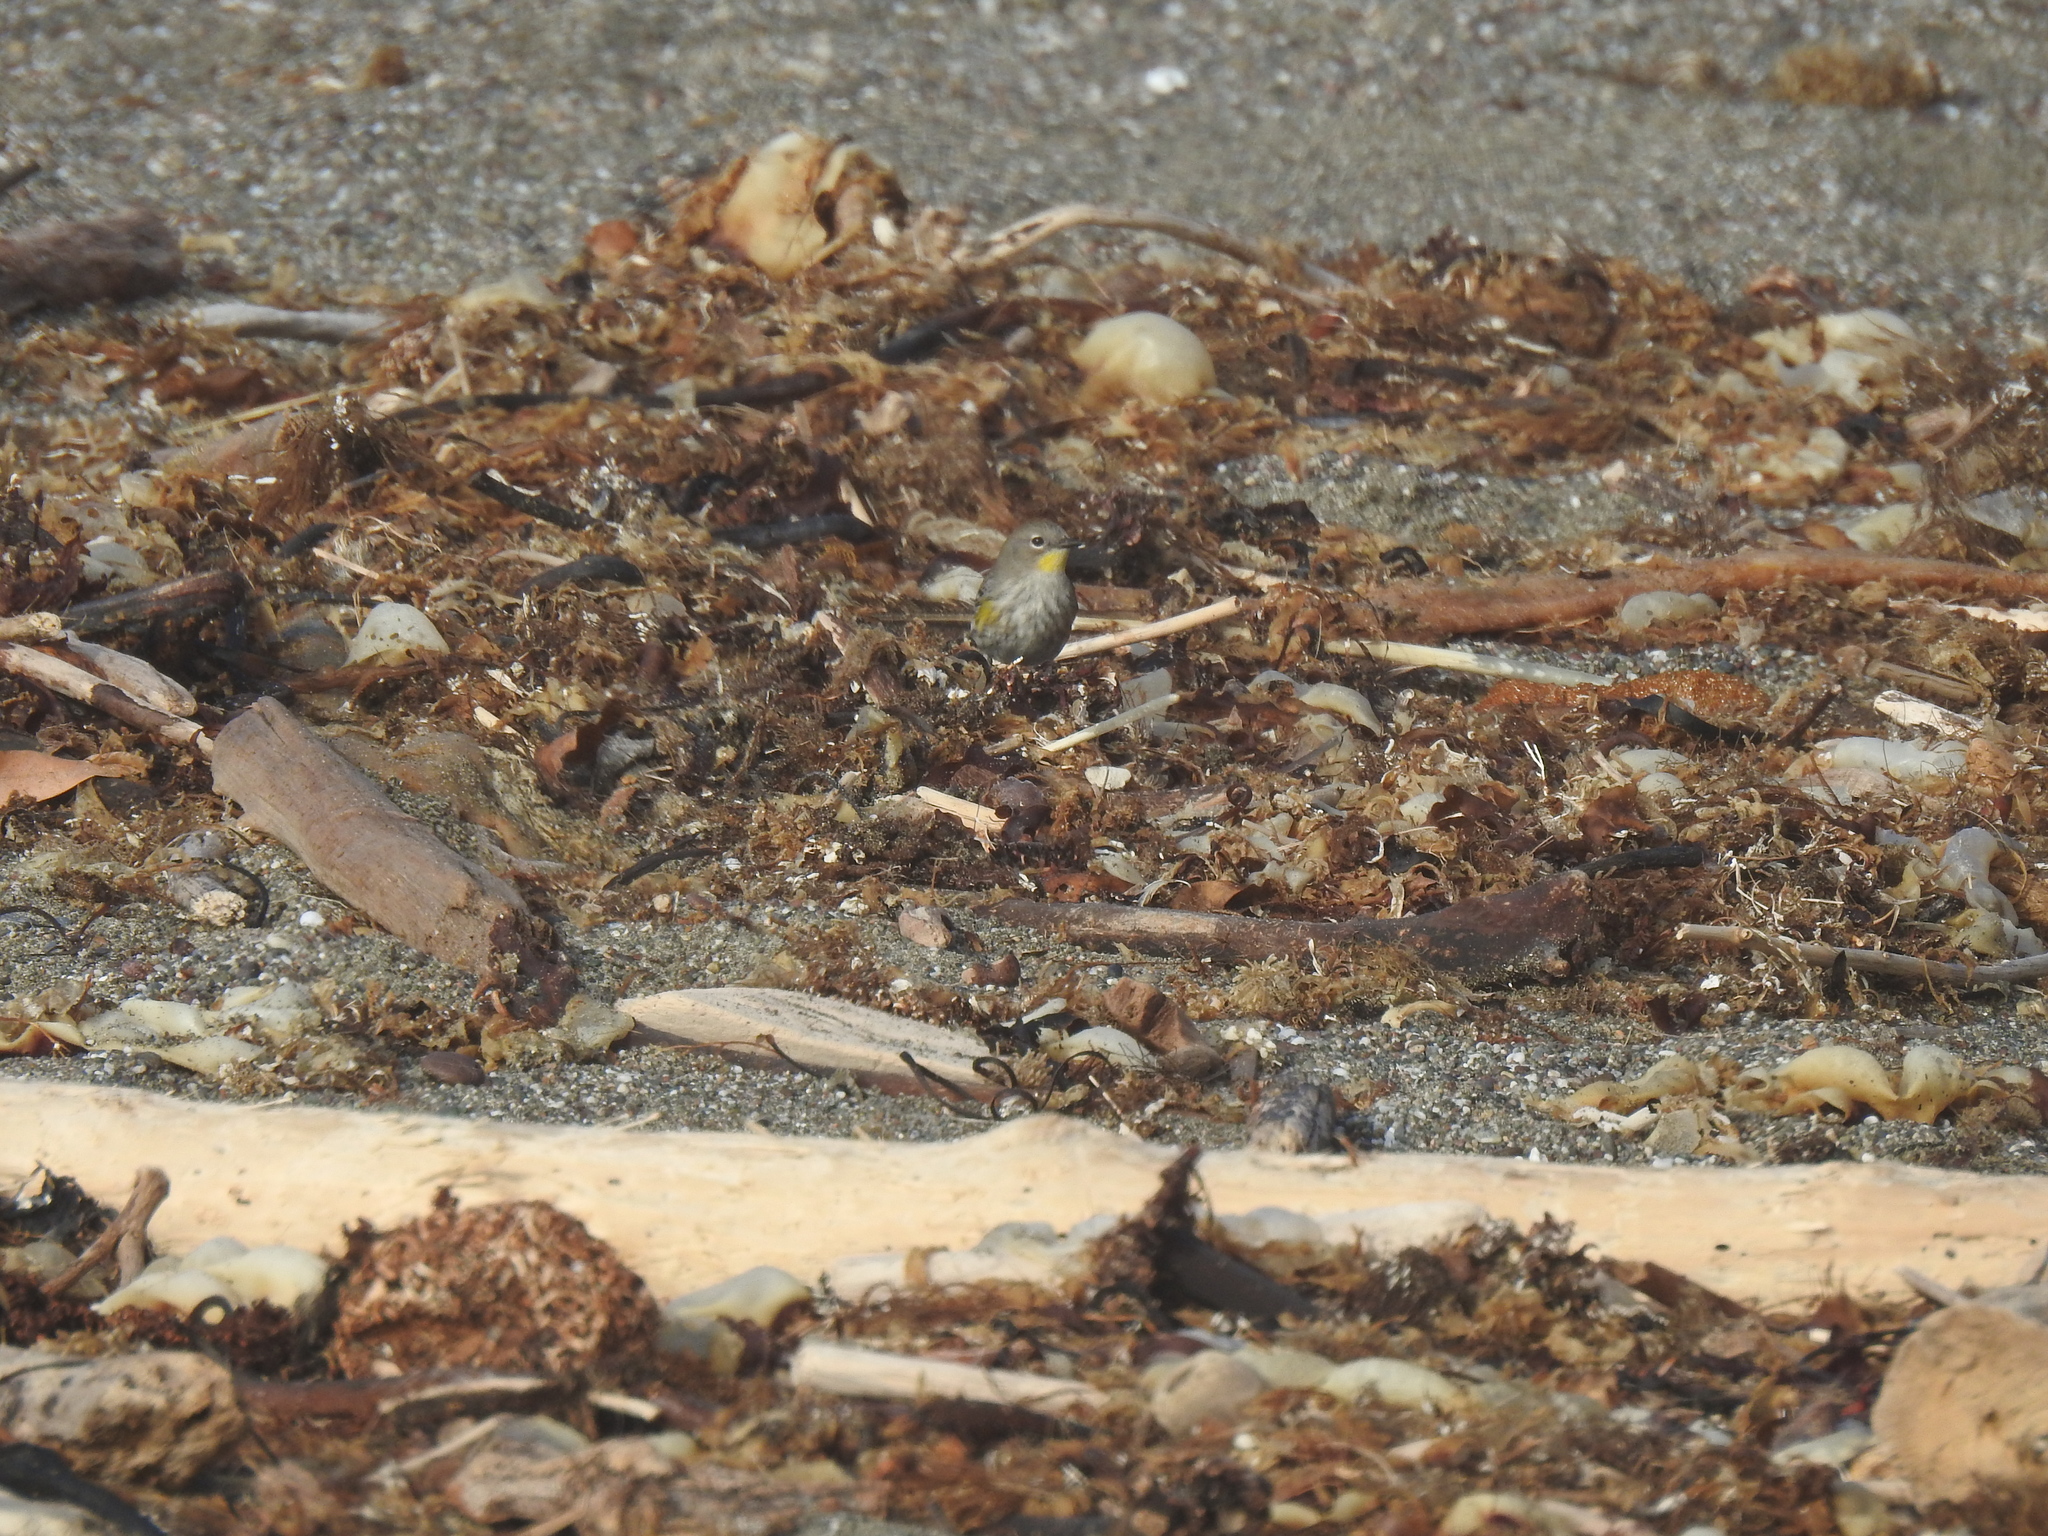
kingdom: Animalia
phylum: Chordata
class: Aves
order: Passeriformes
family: Parulidae
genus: Setophaga
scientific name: Setophaga coronata
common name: Myrtle warbler
